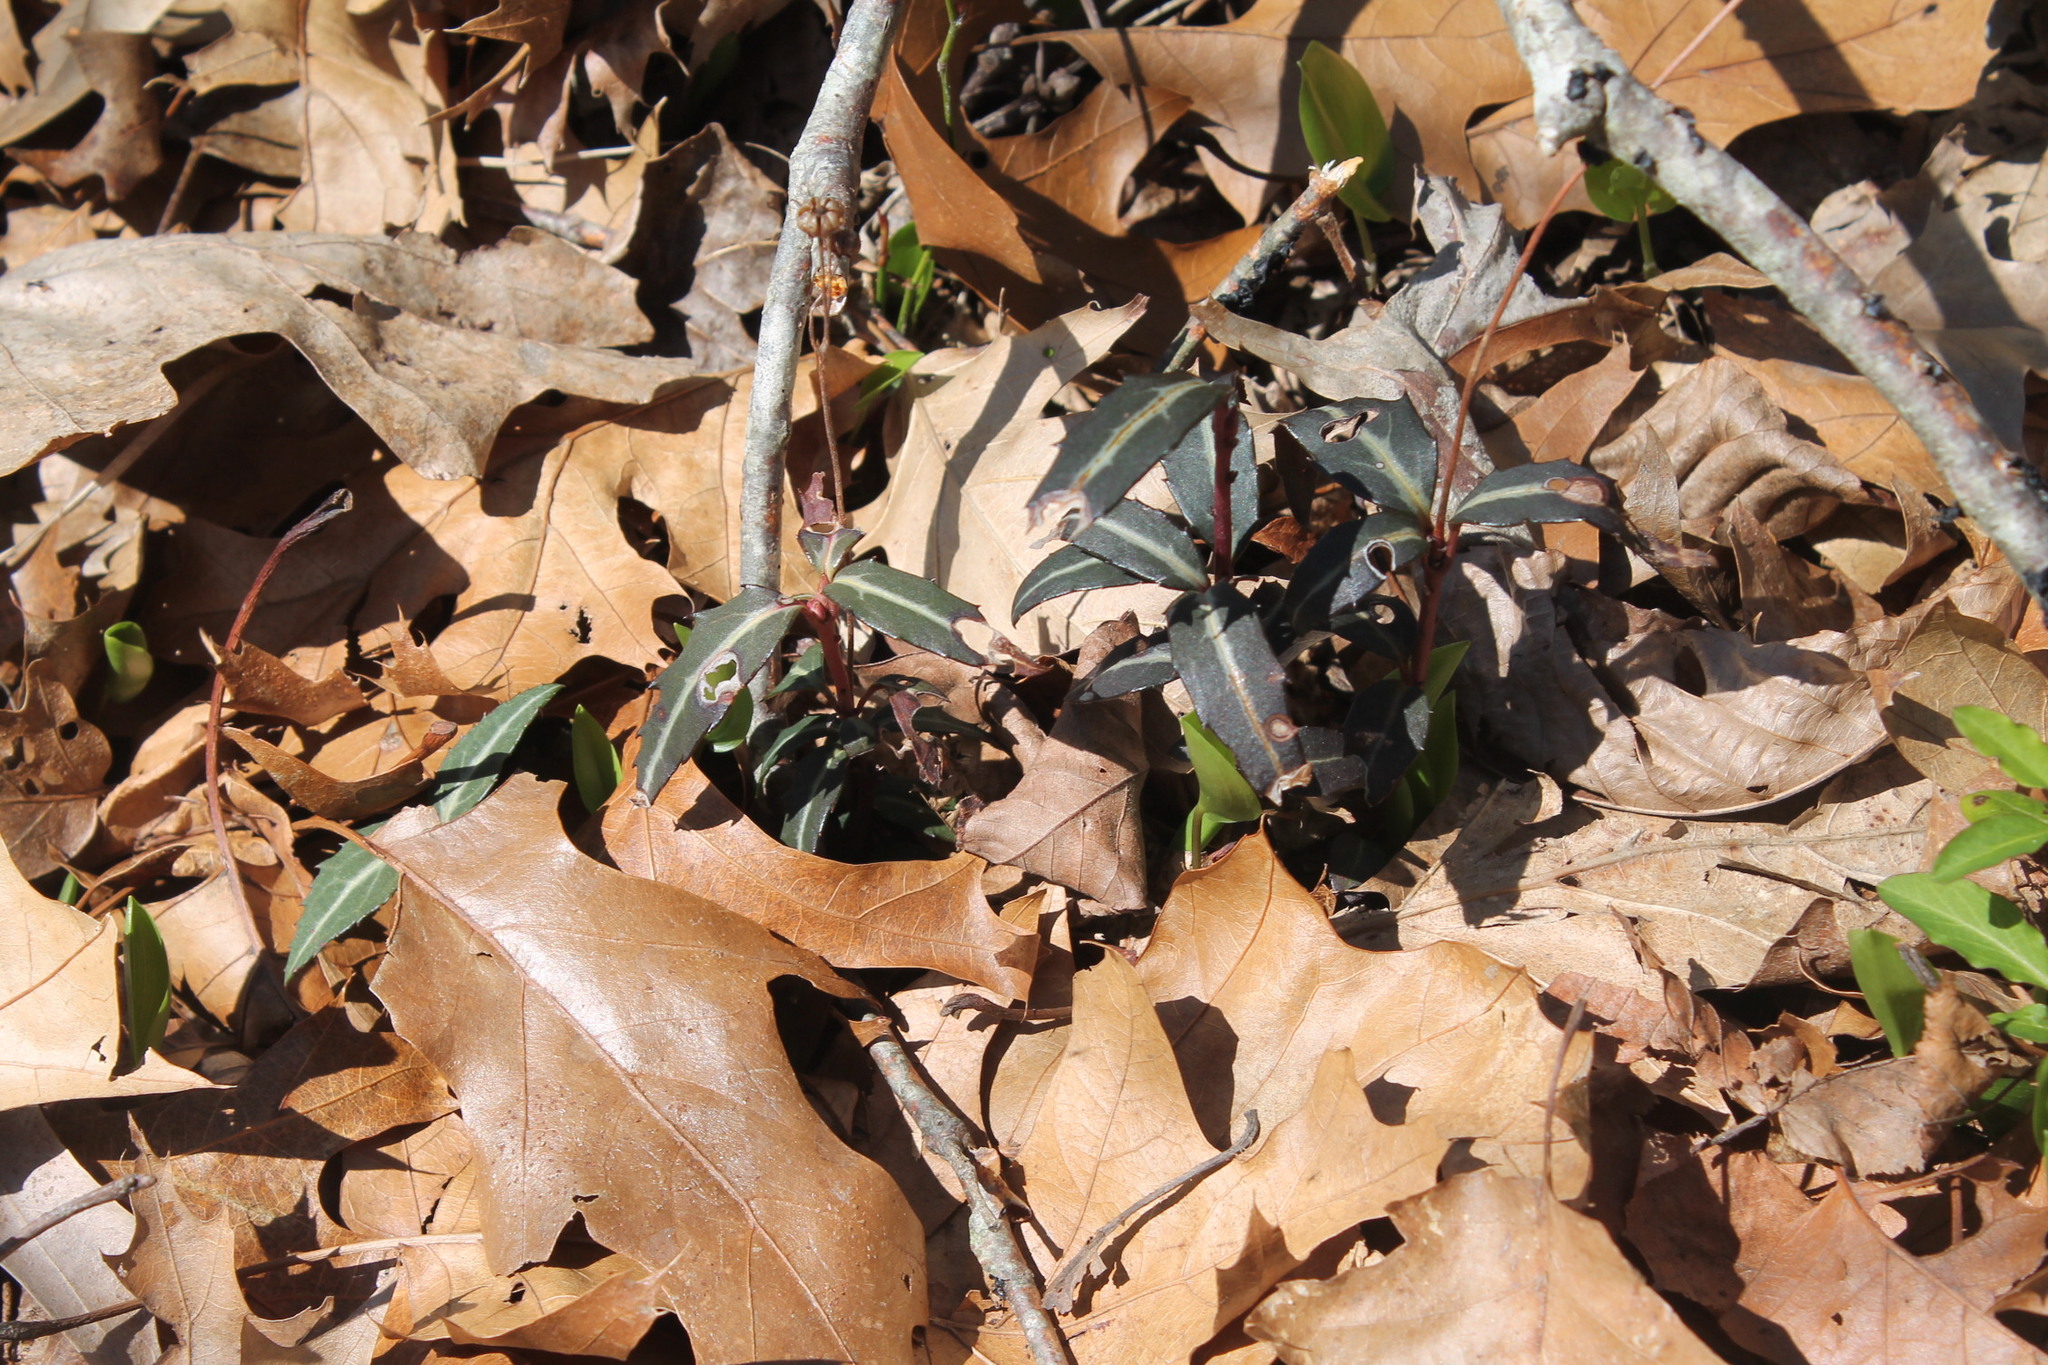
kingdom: Plantae
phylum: Tracheophyta
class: Magnoliopsida
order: Ericales
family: Ericaceae
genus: Chimaphila
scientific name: Chimaphila maculata
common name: Spotted pipsissewa
